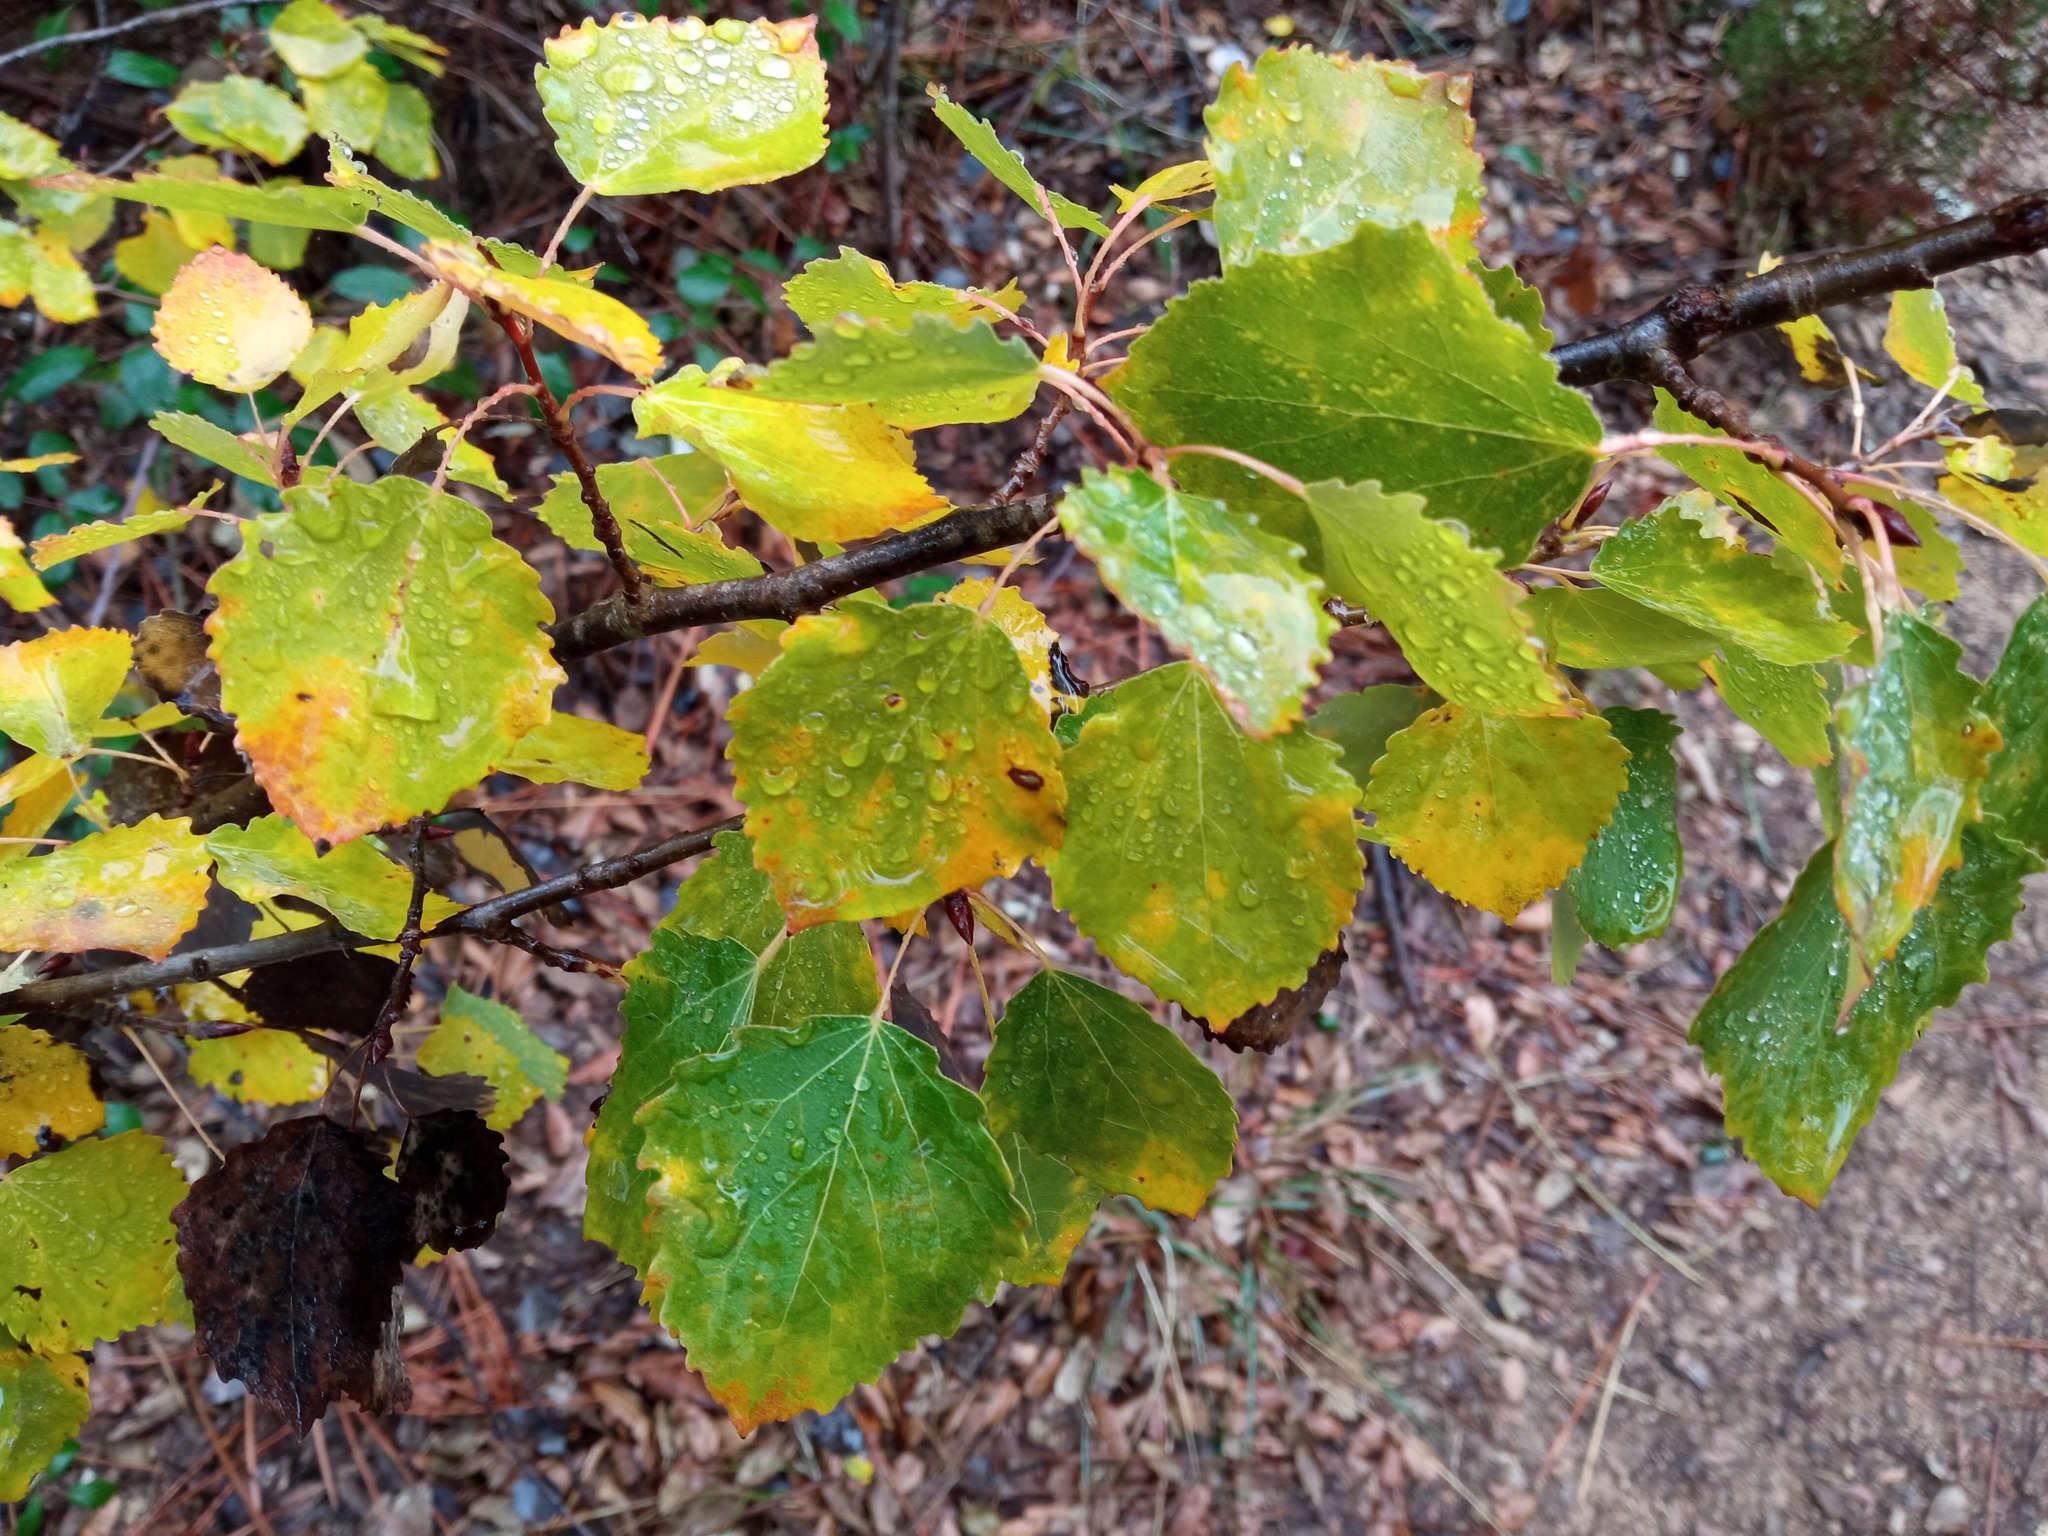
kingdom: Plantae
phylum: Tracheophyta
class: Magnoliopsida
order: Malpighiales
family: Salicaceae
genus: Populus
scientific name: Populus tremula
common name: European aspen
